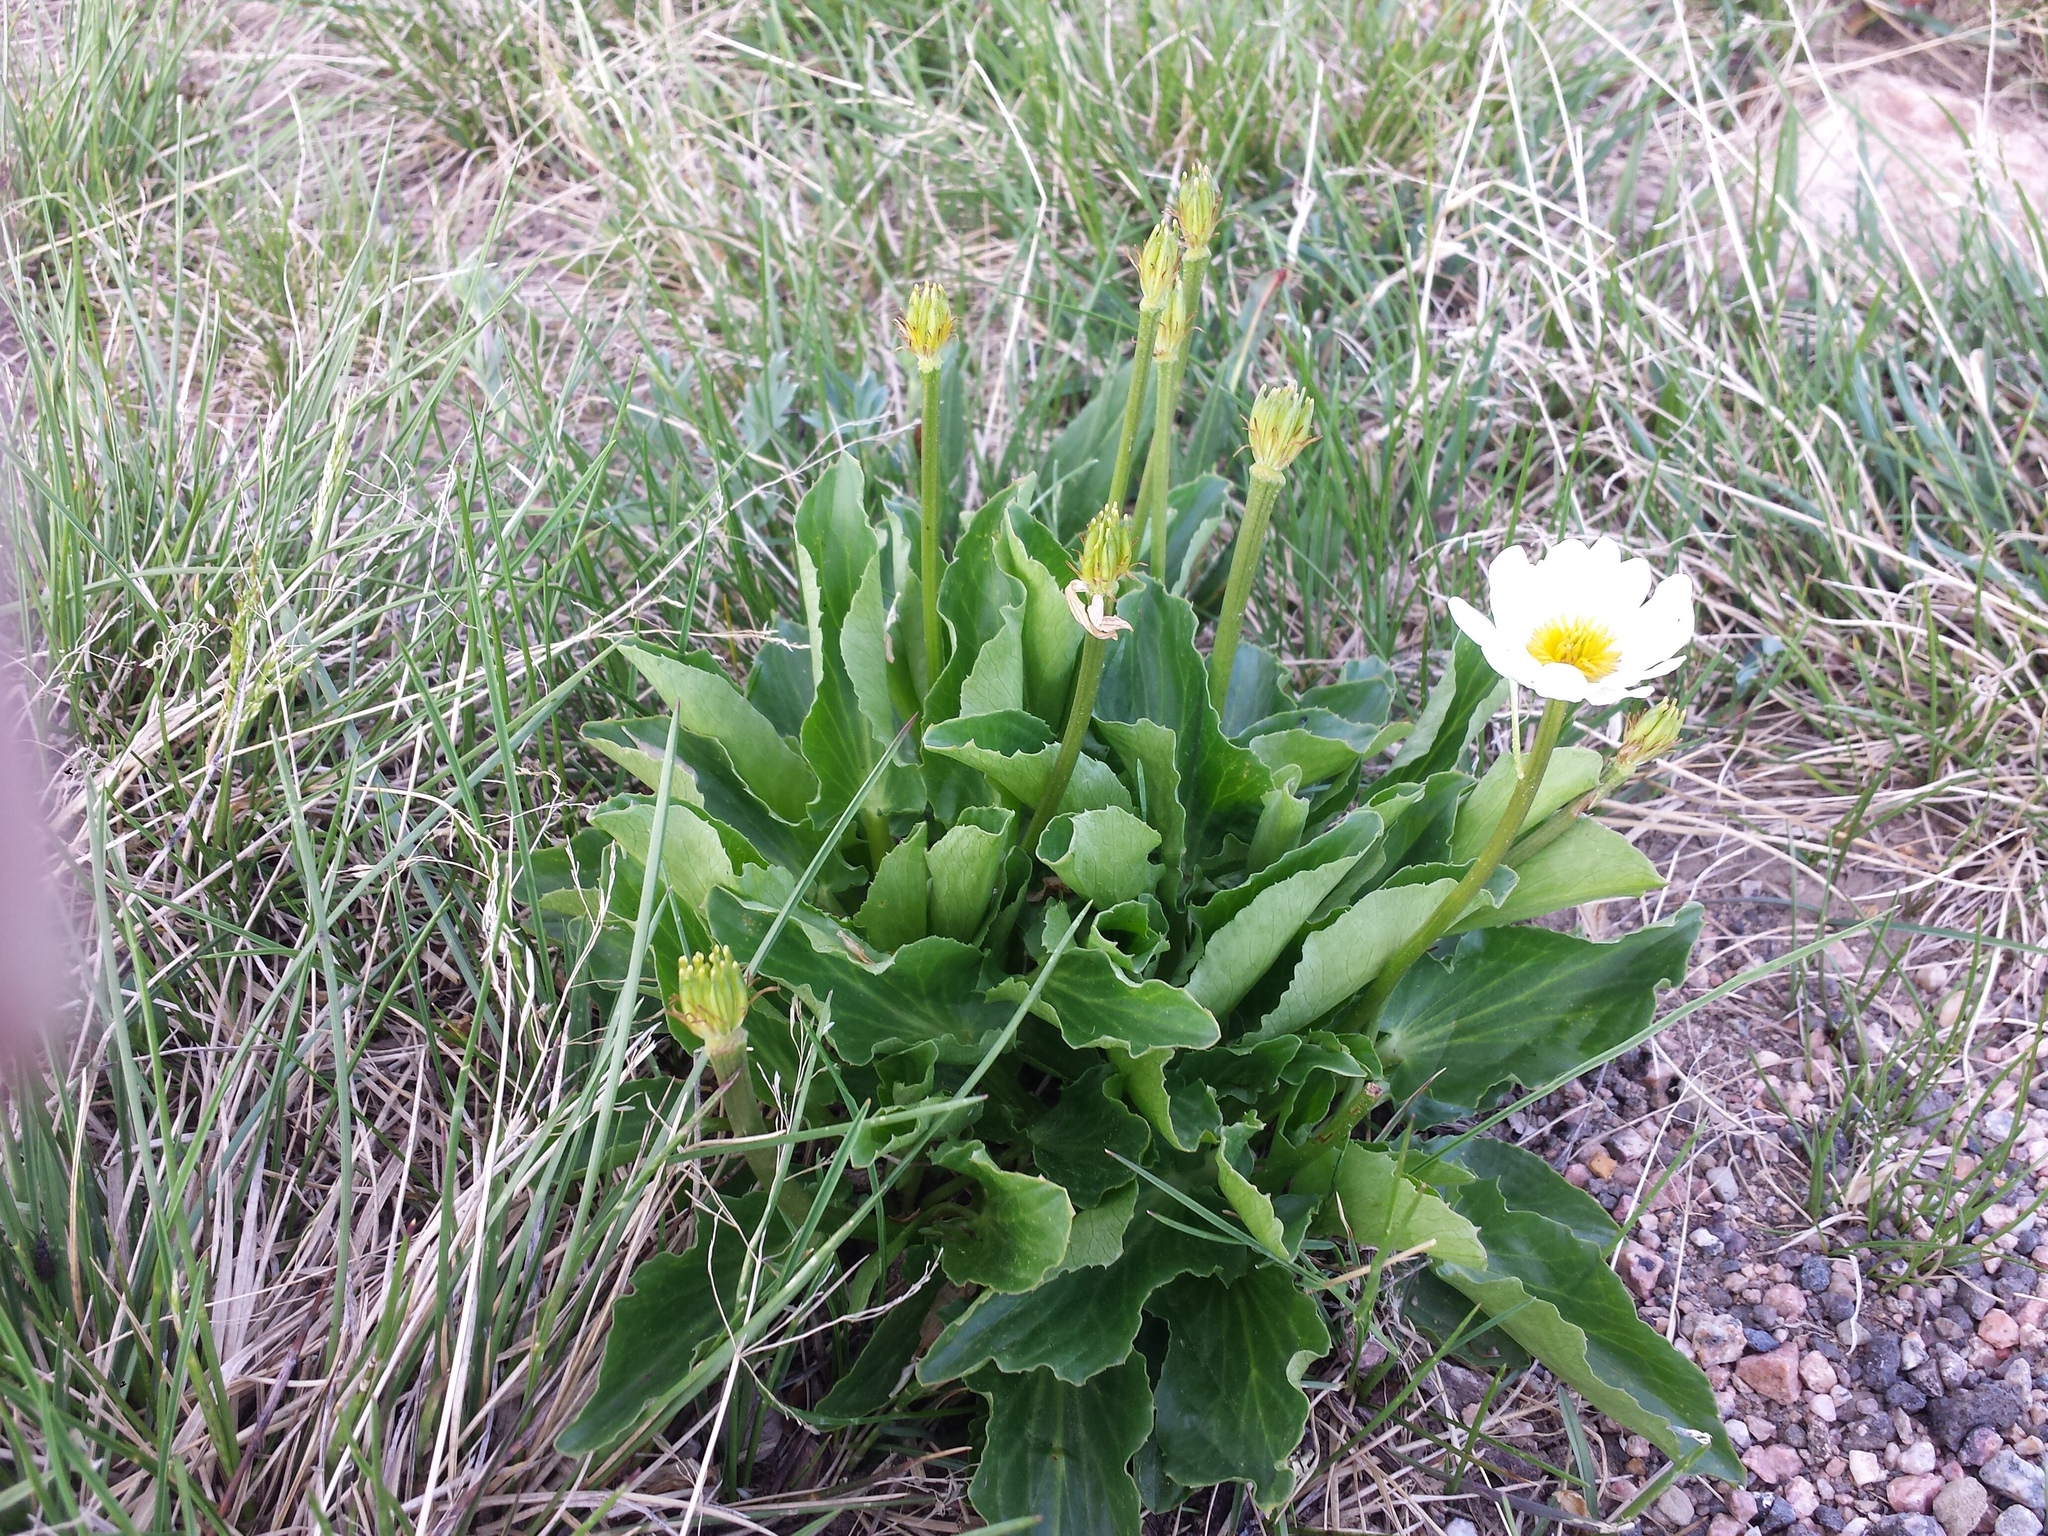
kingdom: Plantae
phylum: Tracheophyta
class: Magnoliopsida
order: Ranunculales
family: Ranunculaceae
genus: Caltha
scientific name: Caltha leptosepala
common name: Elkslip
